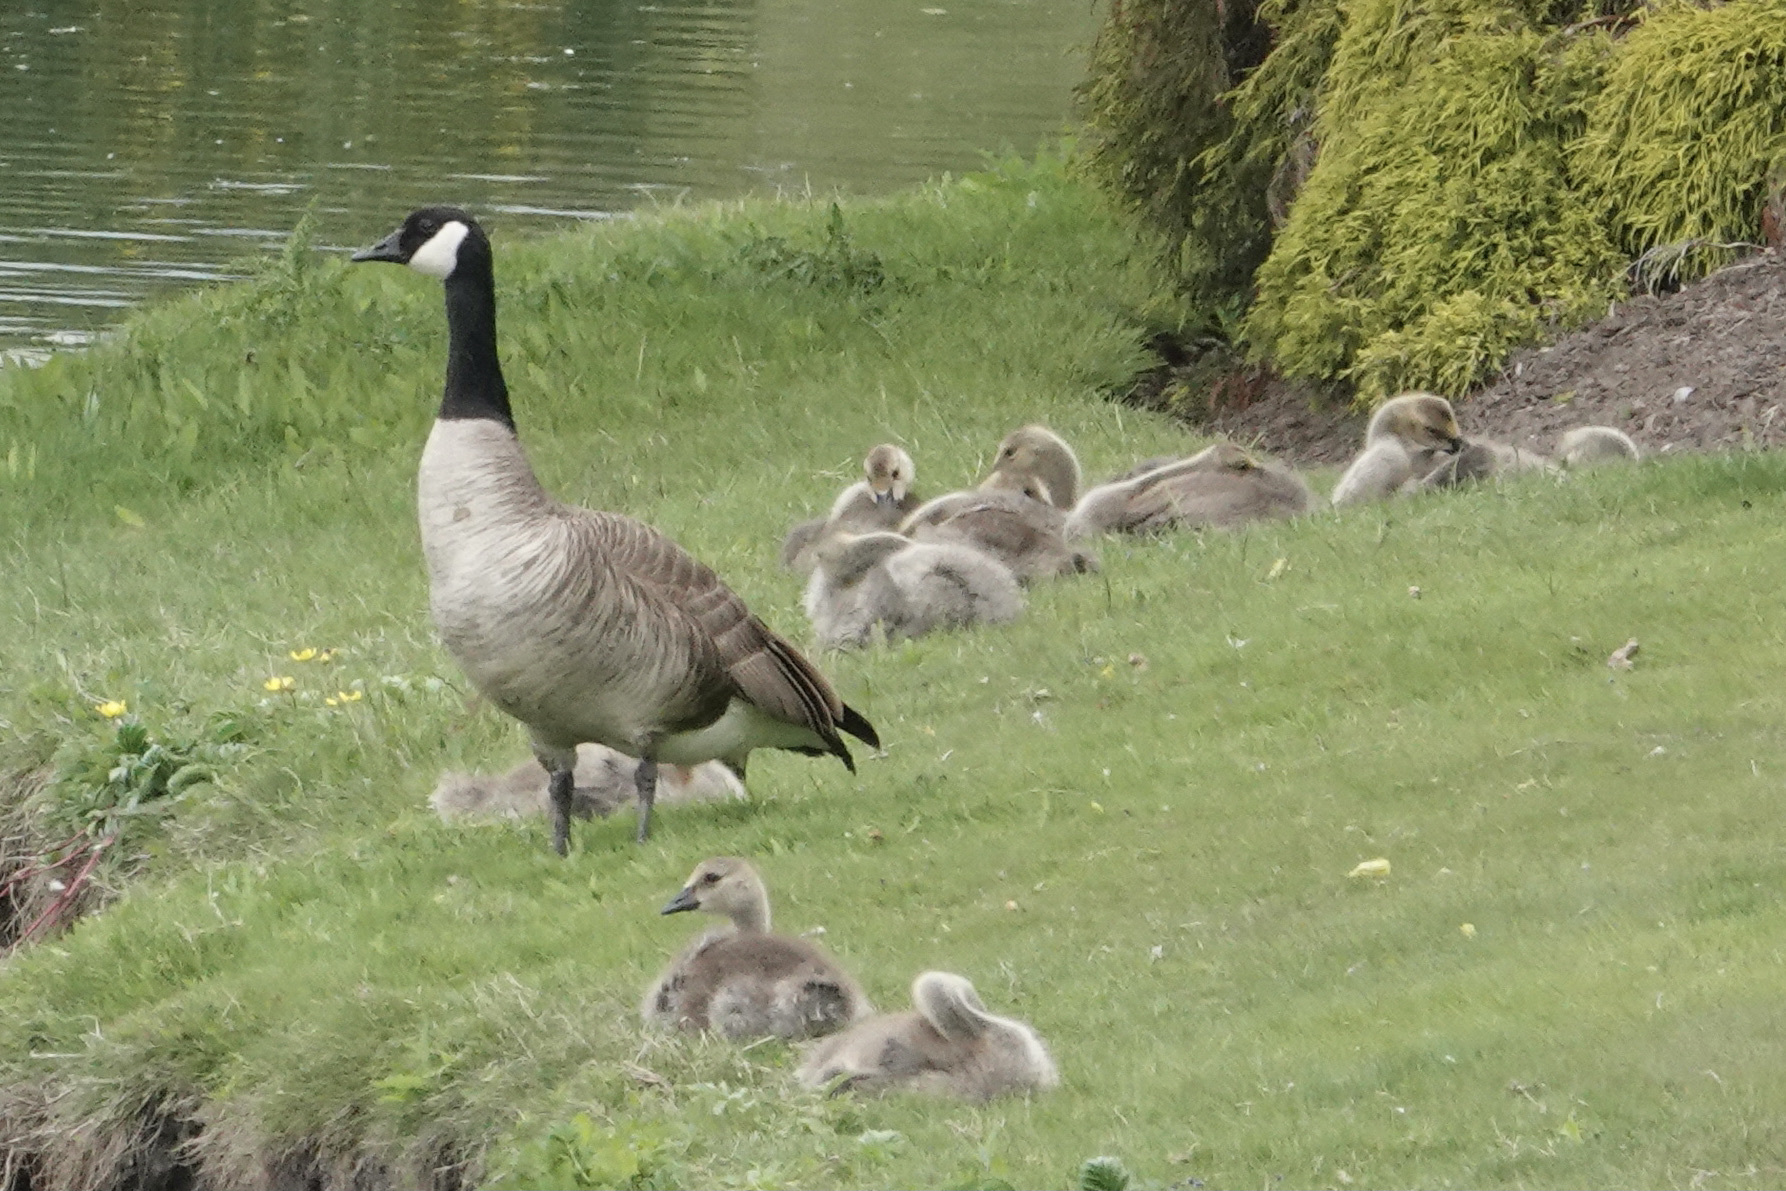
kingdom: Animalia
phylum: Chordata
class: Aves
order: Anseriformes
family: Anatidae
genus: Branta
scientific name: Branta canadensis
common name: Canada goose
